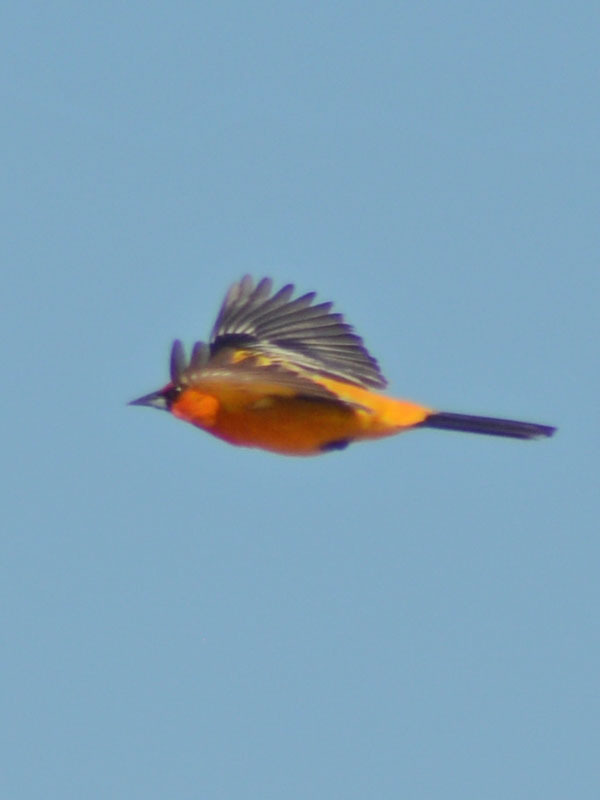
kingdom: Animalia
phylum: Chordata
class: Aves
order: Passeriformes
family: Icteridae
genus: Icterus
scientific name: Icterus pustulatus
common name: Streak-backed oriole
